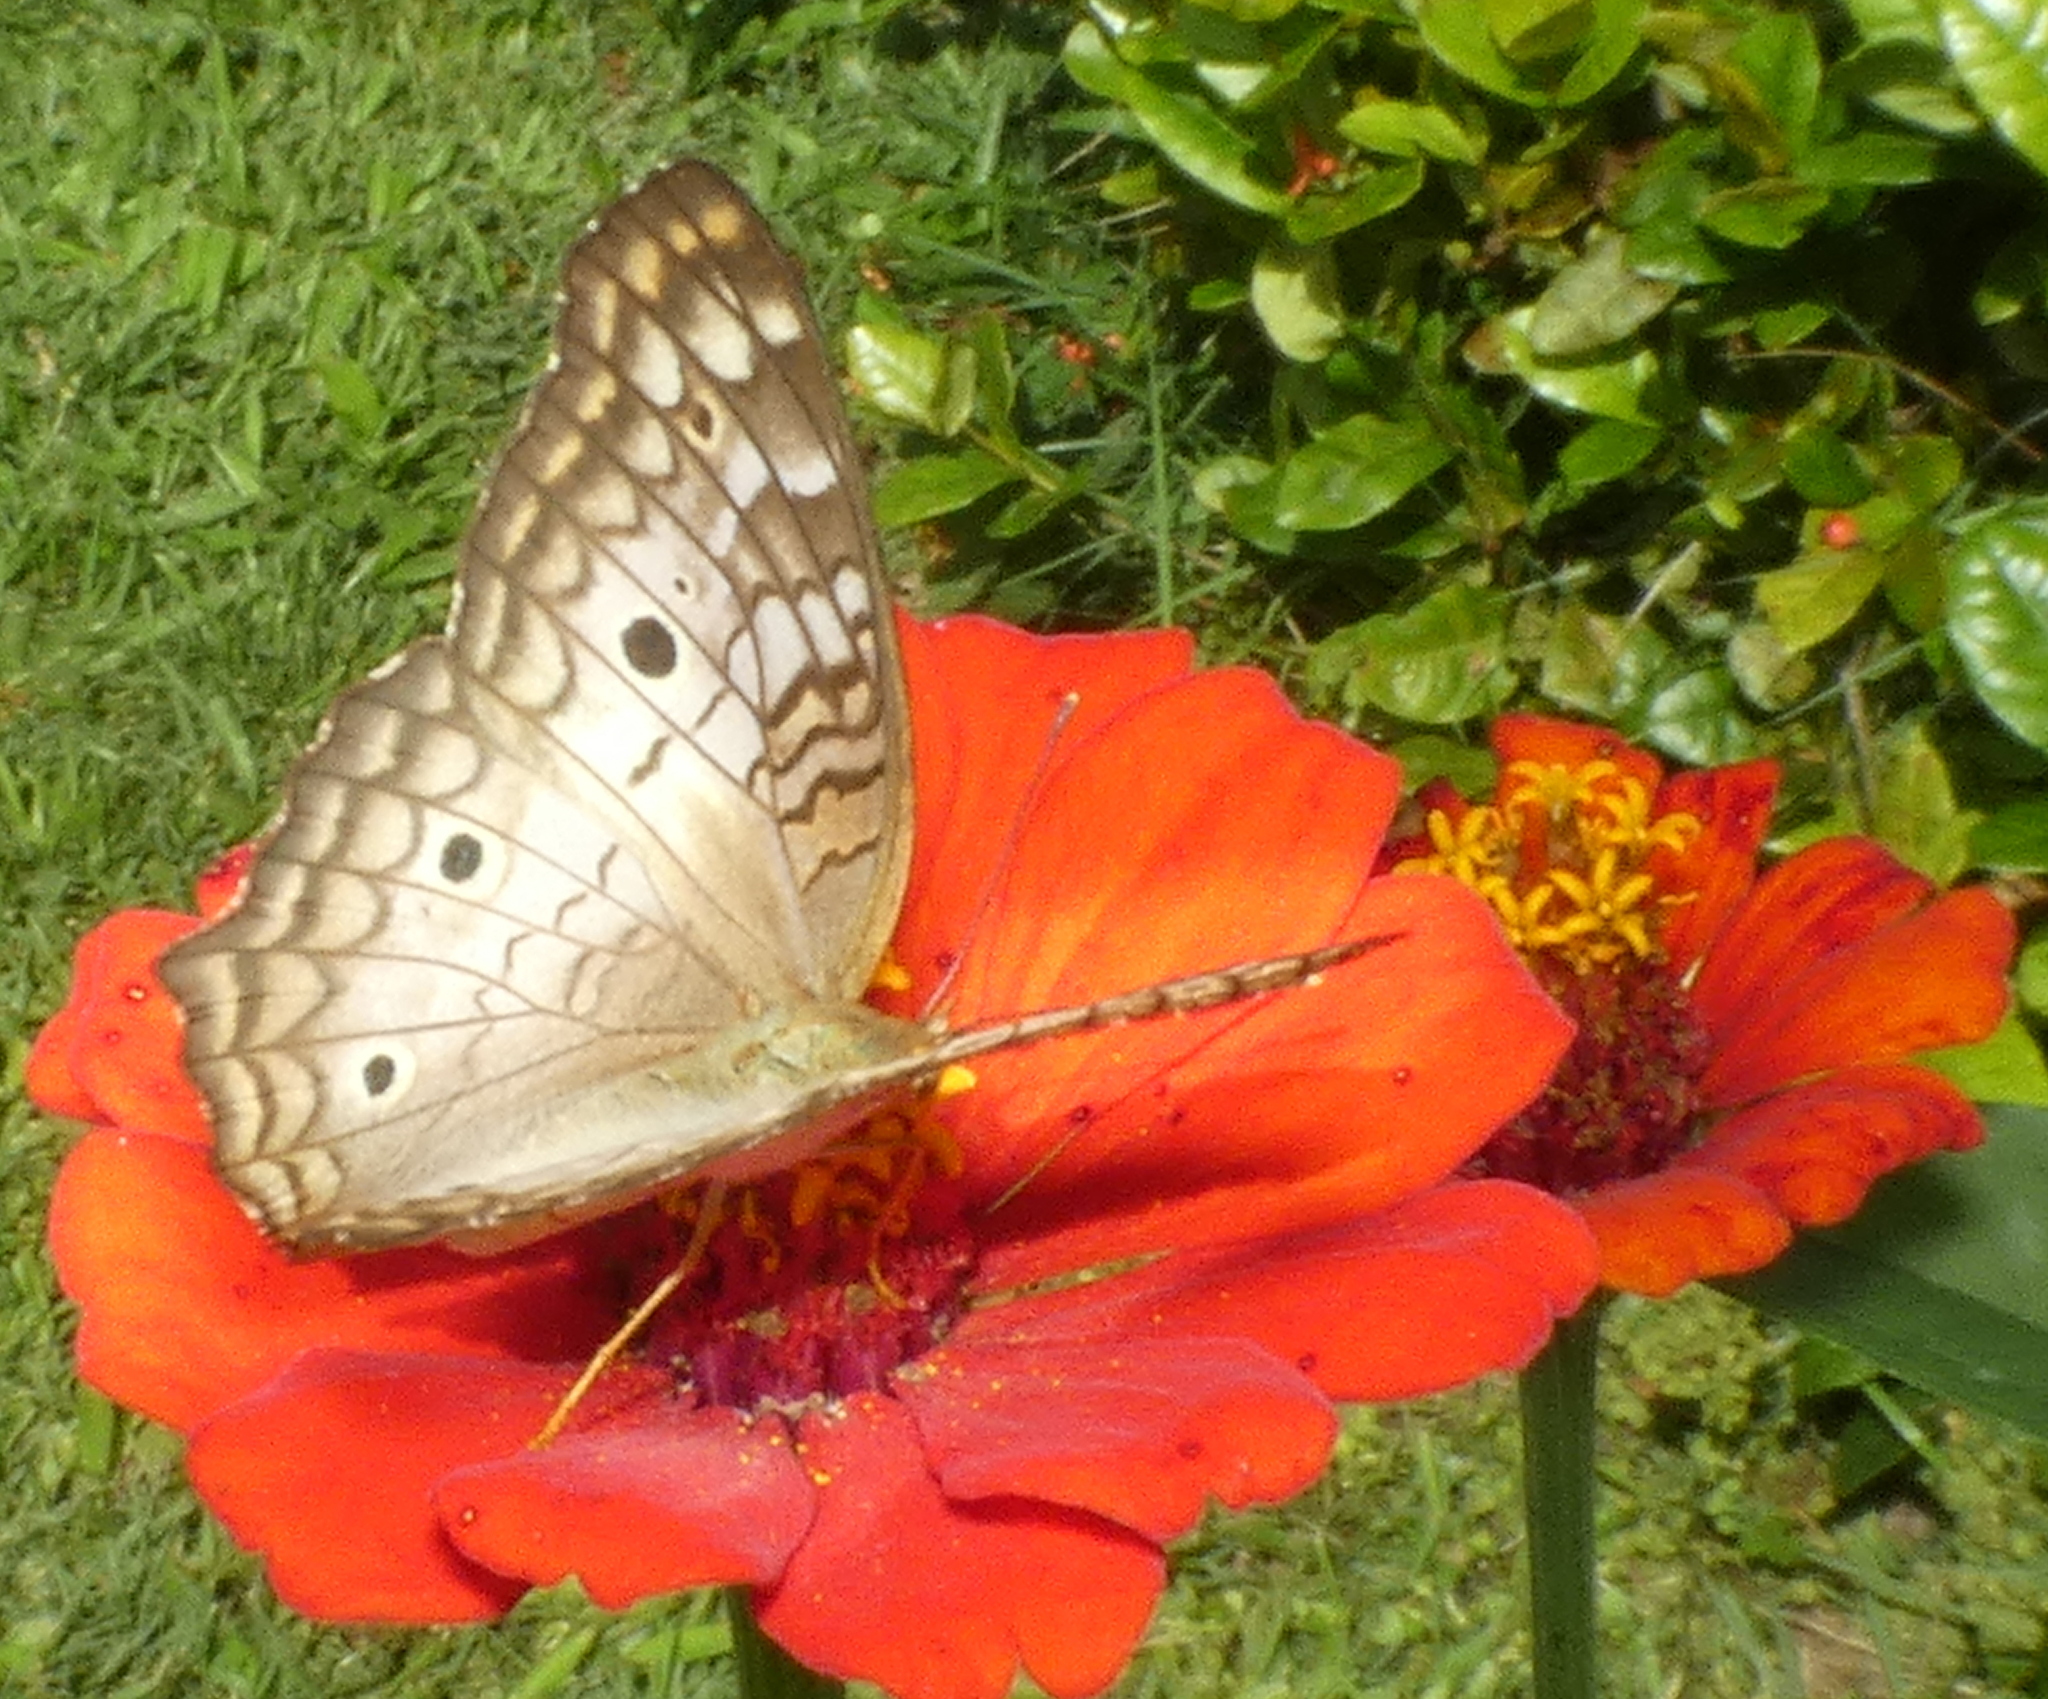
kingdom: Animalia
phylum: Arthropoda
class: Insecta
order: Lepidoptera
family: Nymphalidae
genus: Anartia
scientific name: Anartia jatrophae
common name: White peacock
